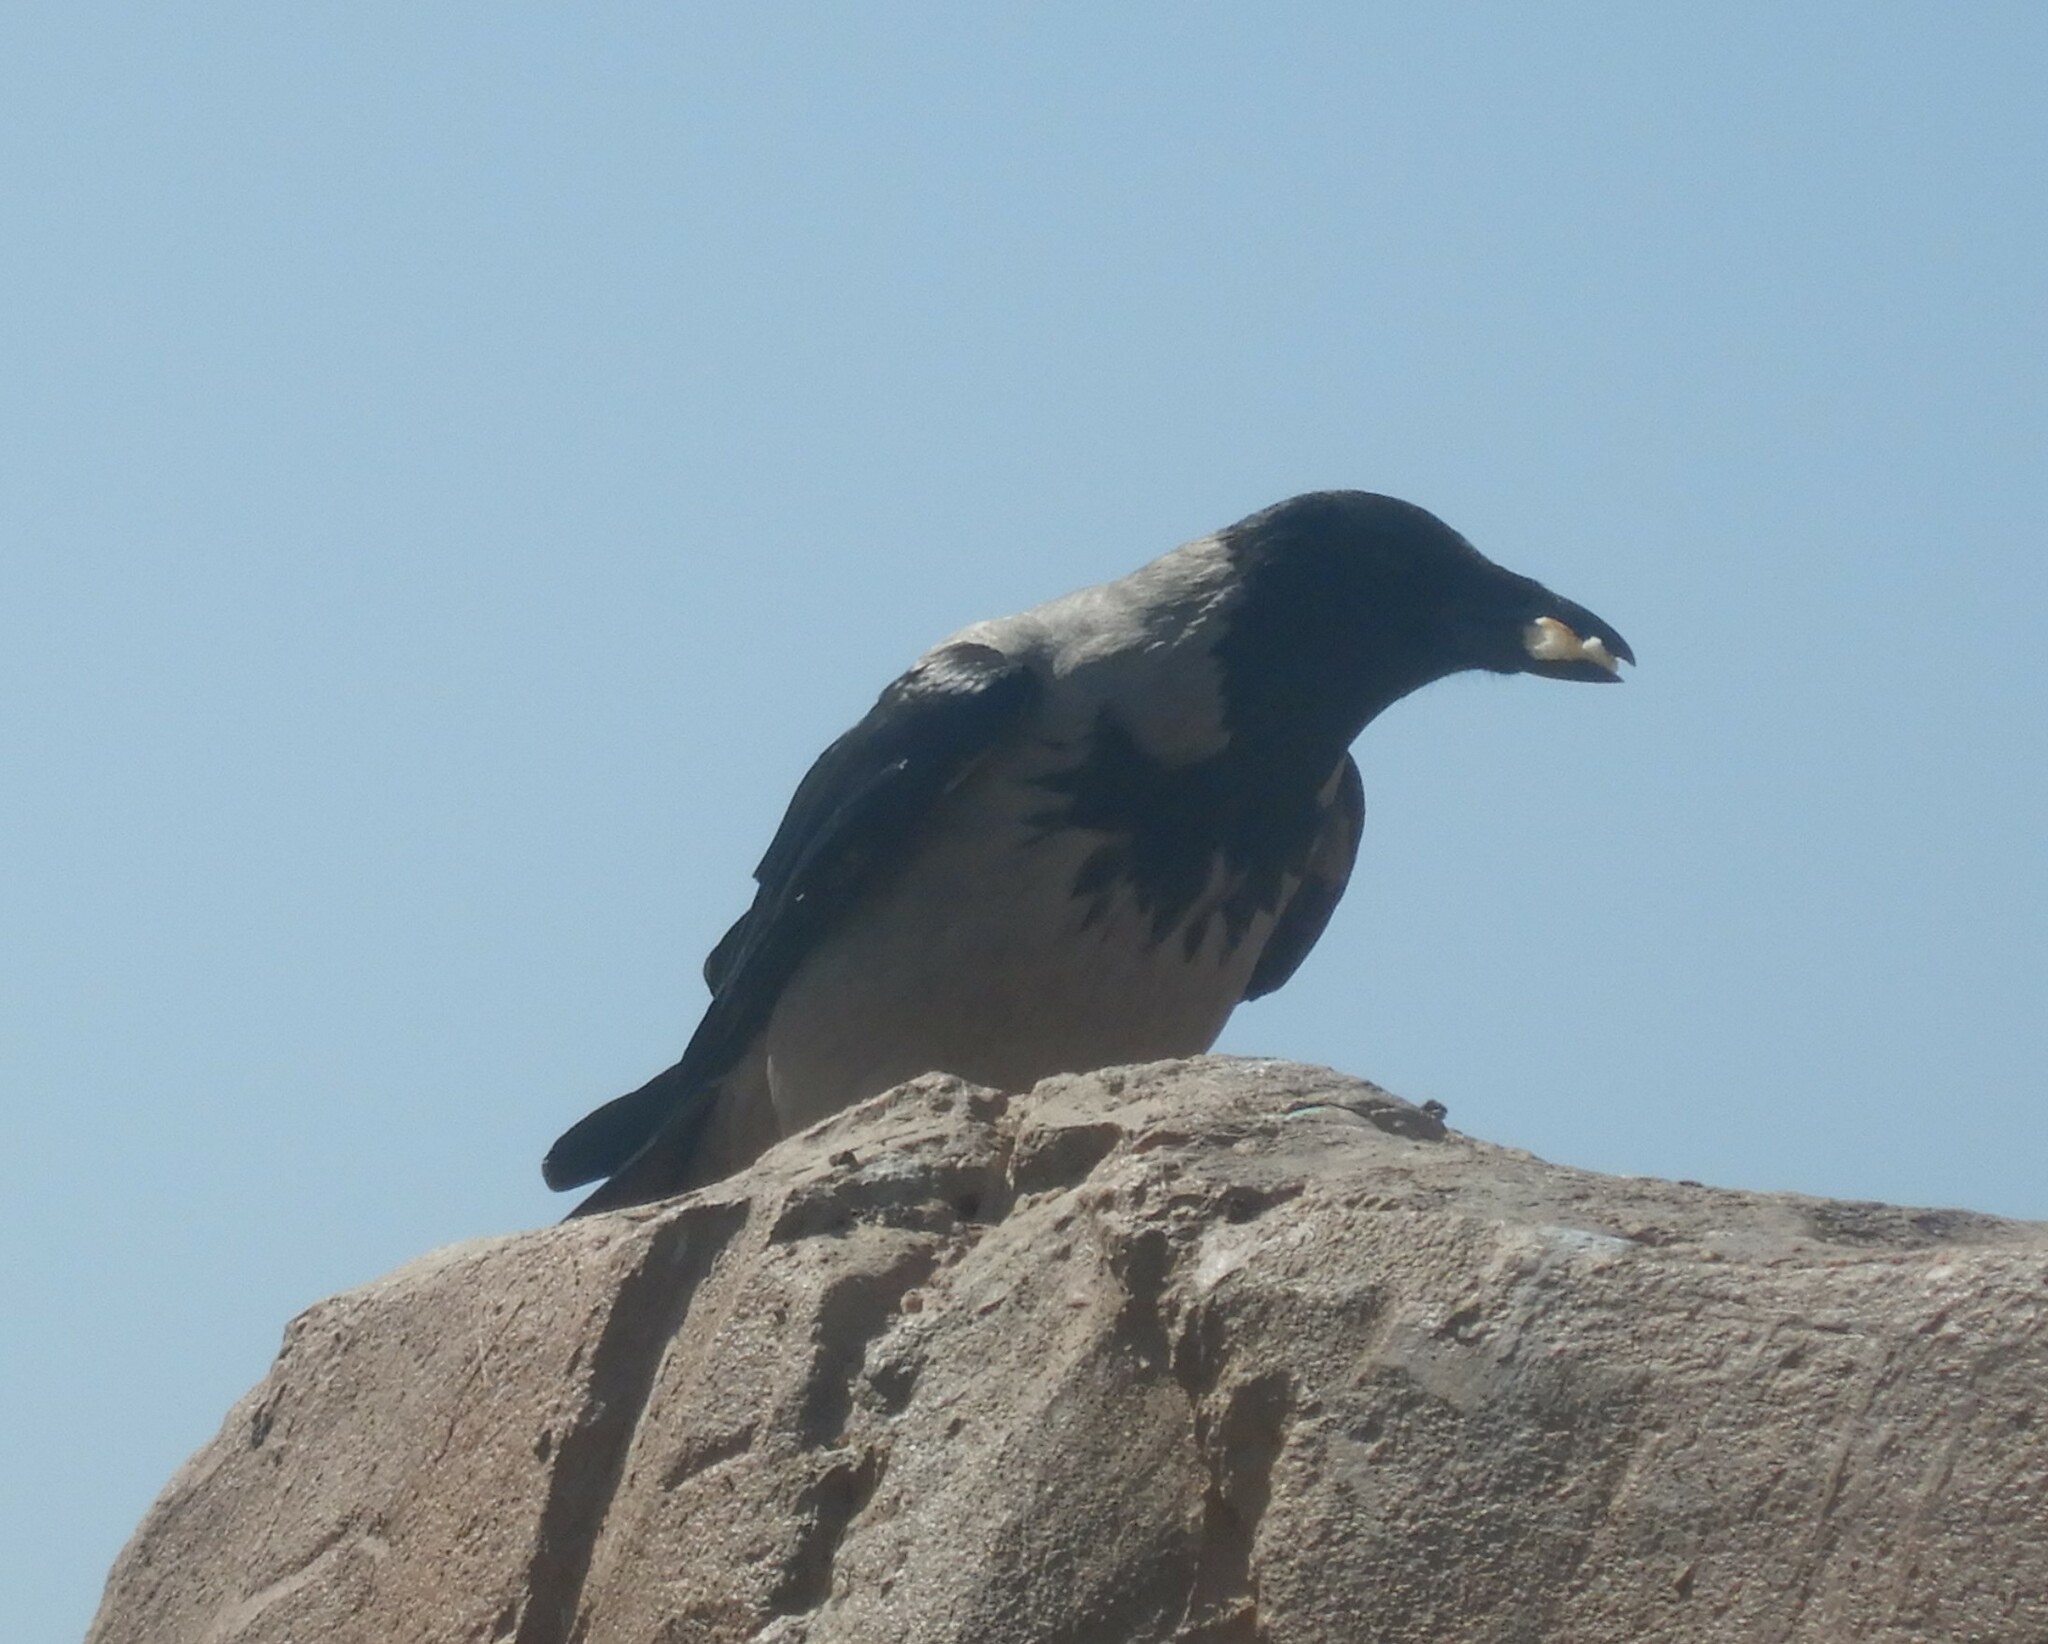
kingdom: Animalia
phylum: Chordata
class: Aves
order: Passeriformes
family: Corvidae
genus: Corvus
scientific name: Corvus cornix
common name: Hooded crow
